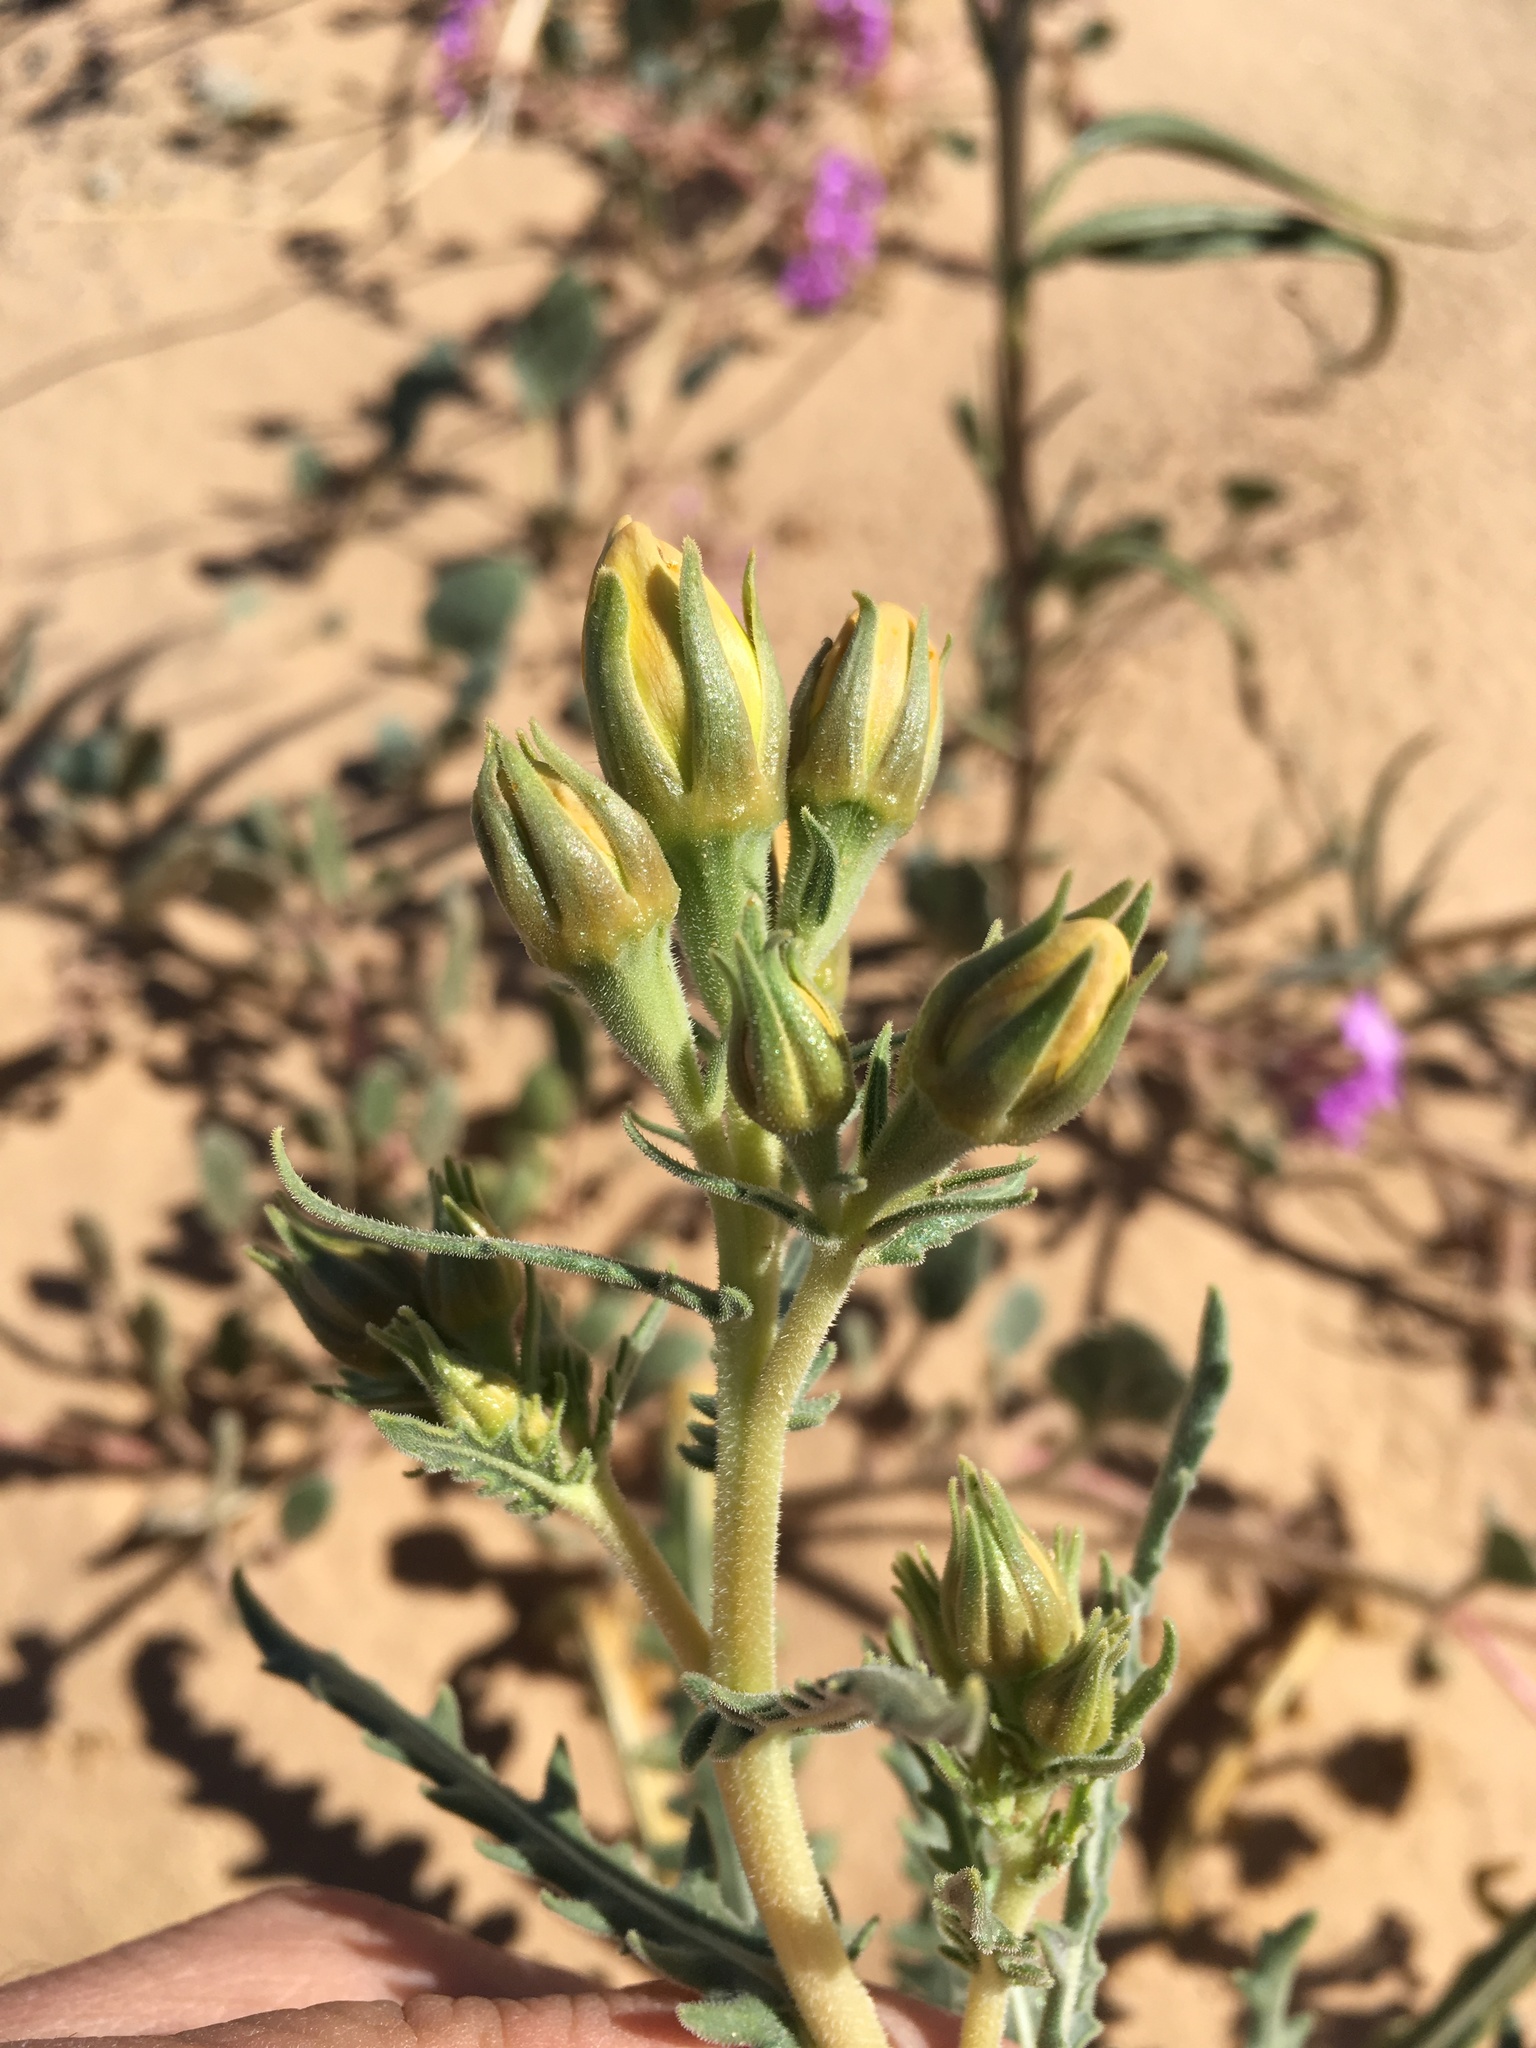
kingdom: Plantae
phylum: Tracheophyta
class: Magnoliopsida
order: Cornales
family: Loasaceae
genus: Mentzelia
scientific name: Mentzelia longiloba
